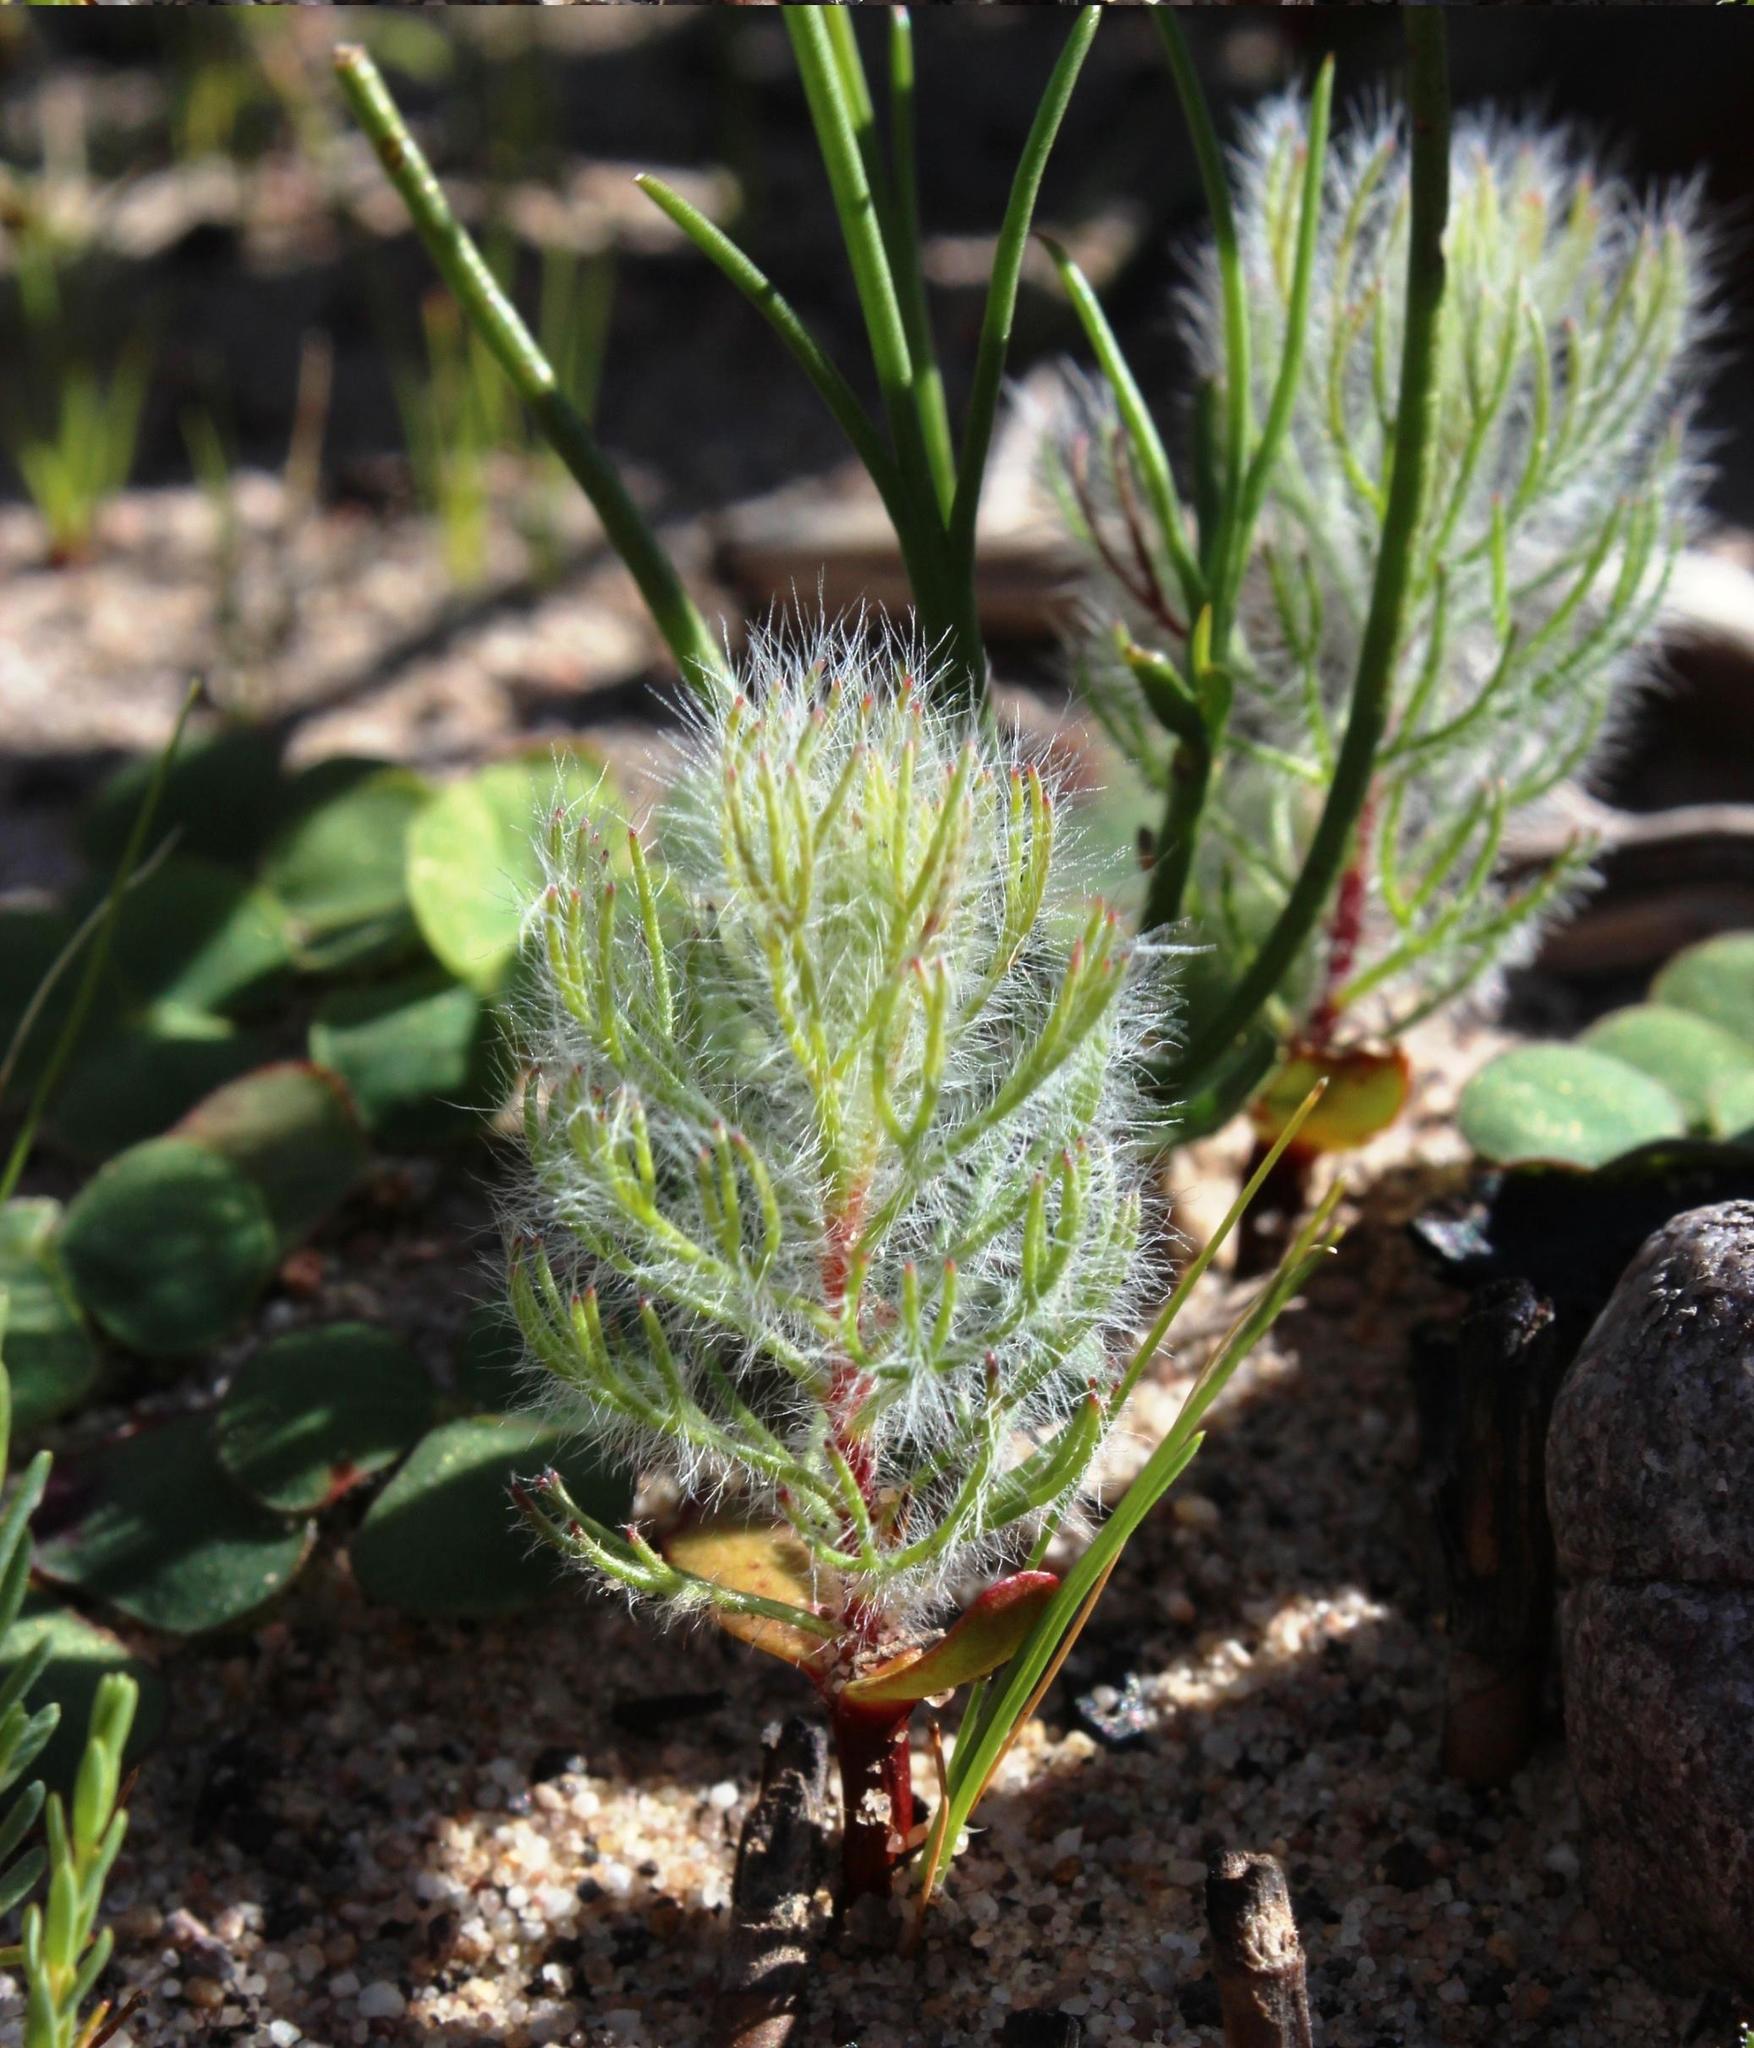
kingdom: Plantae
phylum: Tracheophyta
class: Magnoliopsida
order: Proteales
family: Proteaceae
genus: Serruria
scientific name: Serruria acrocarpa
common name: Common rootstock spiderhead
